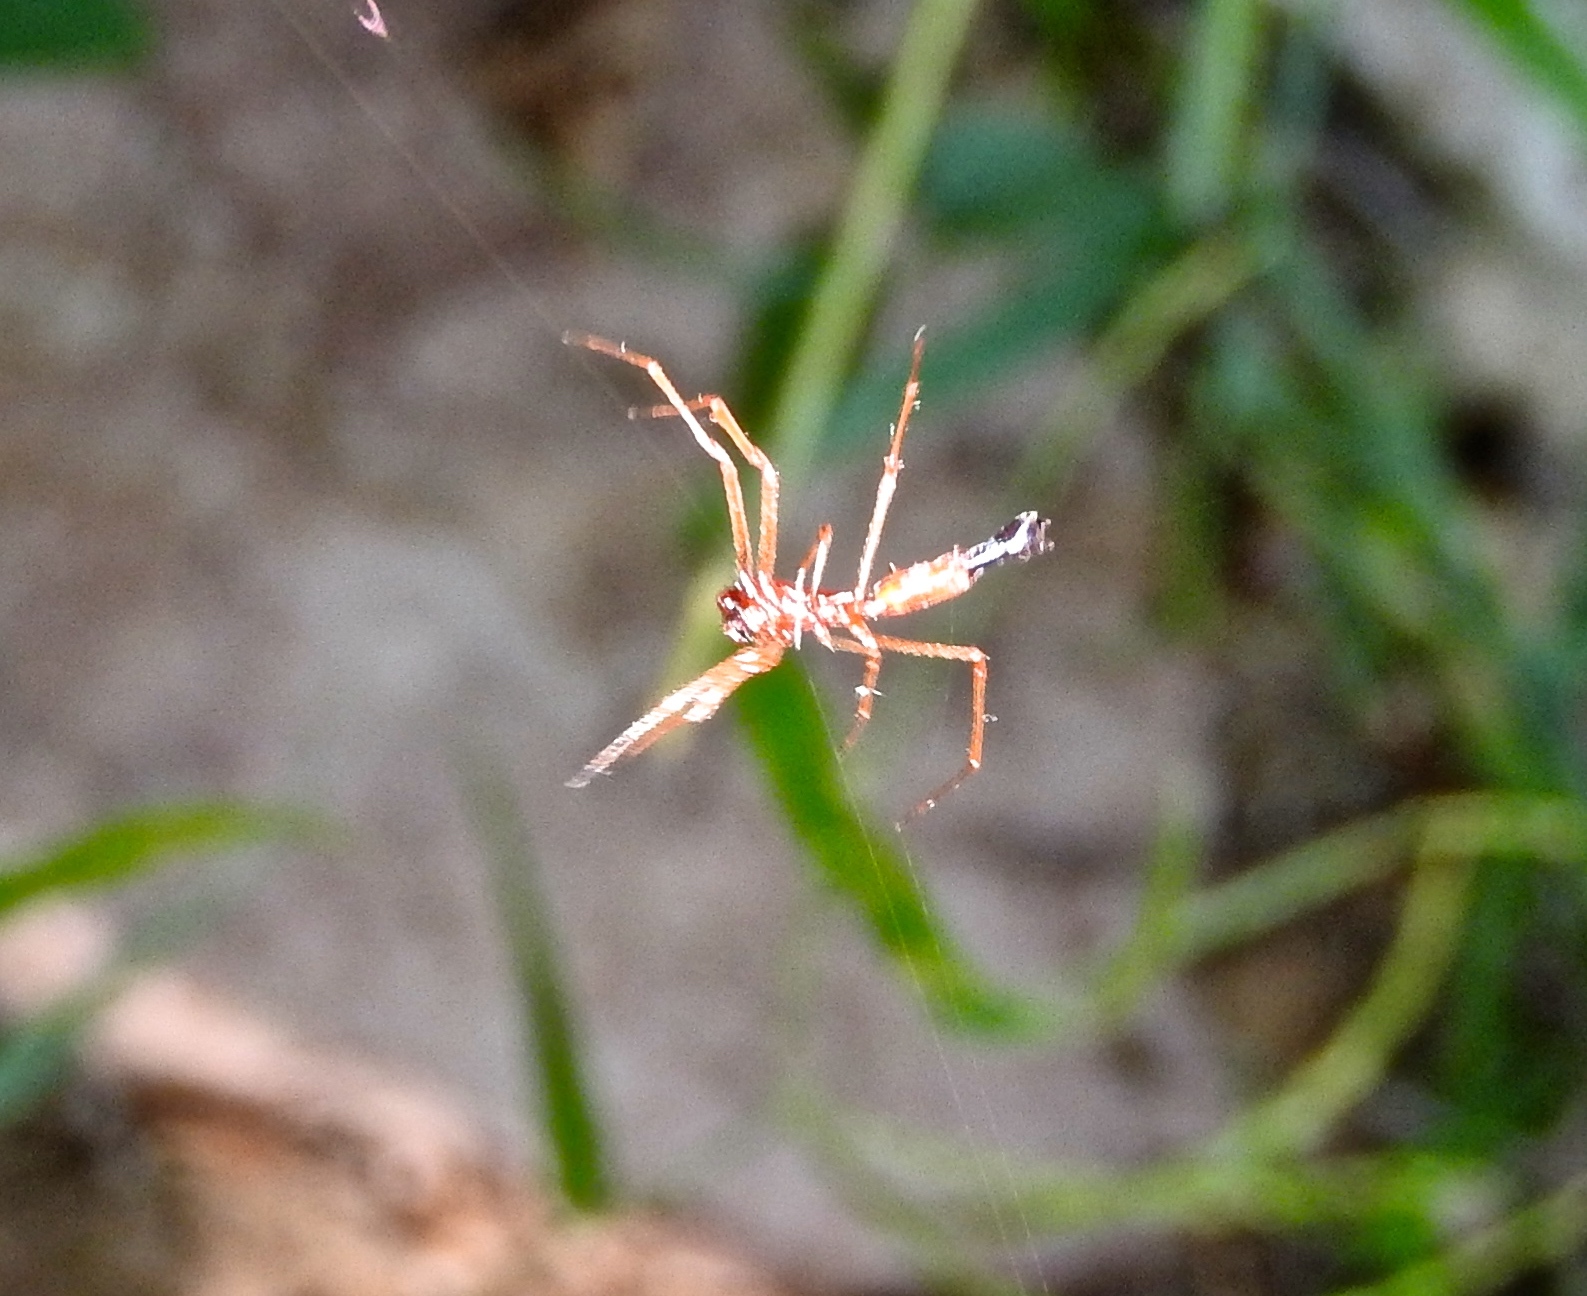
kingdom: Animalia
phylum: Arthropoda
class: Arachnida
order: Araneae
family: Araneidae
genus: Edricus
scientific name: Edricus productus
